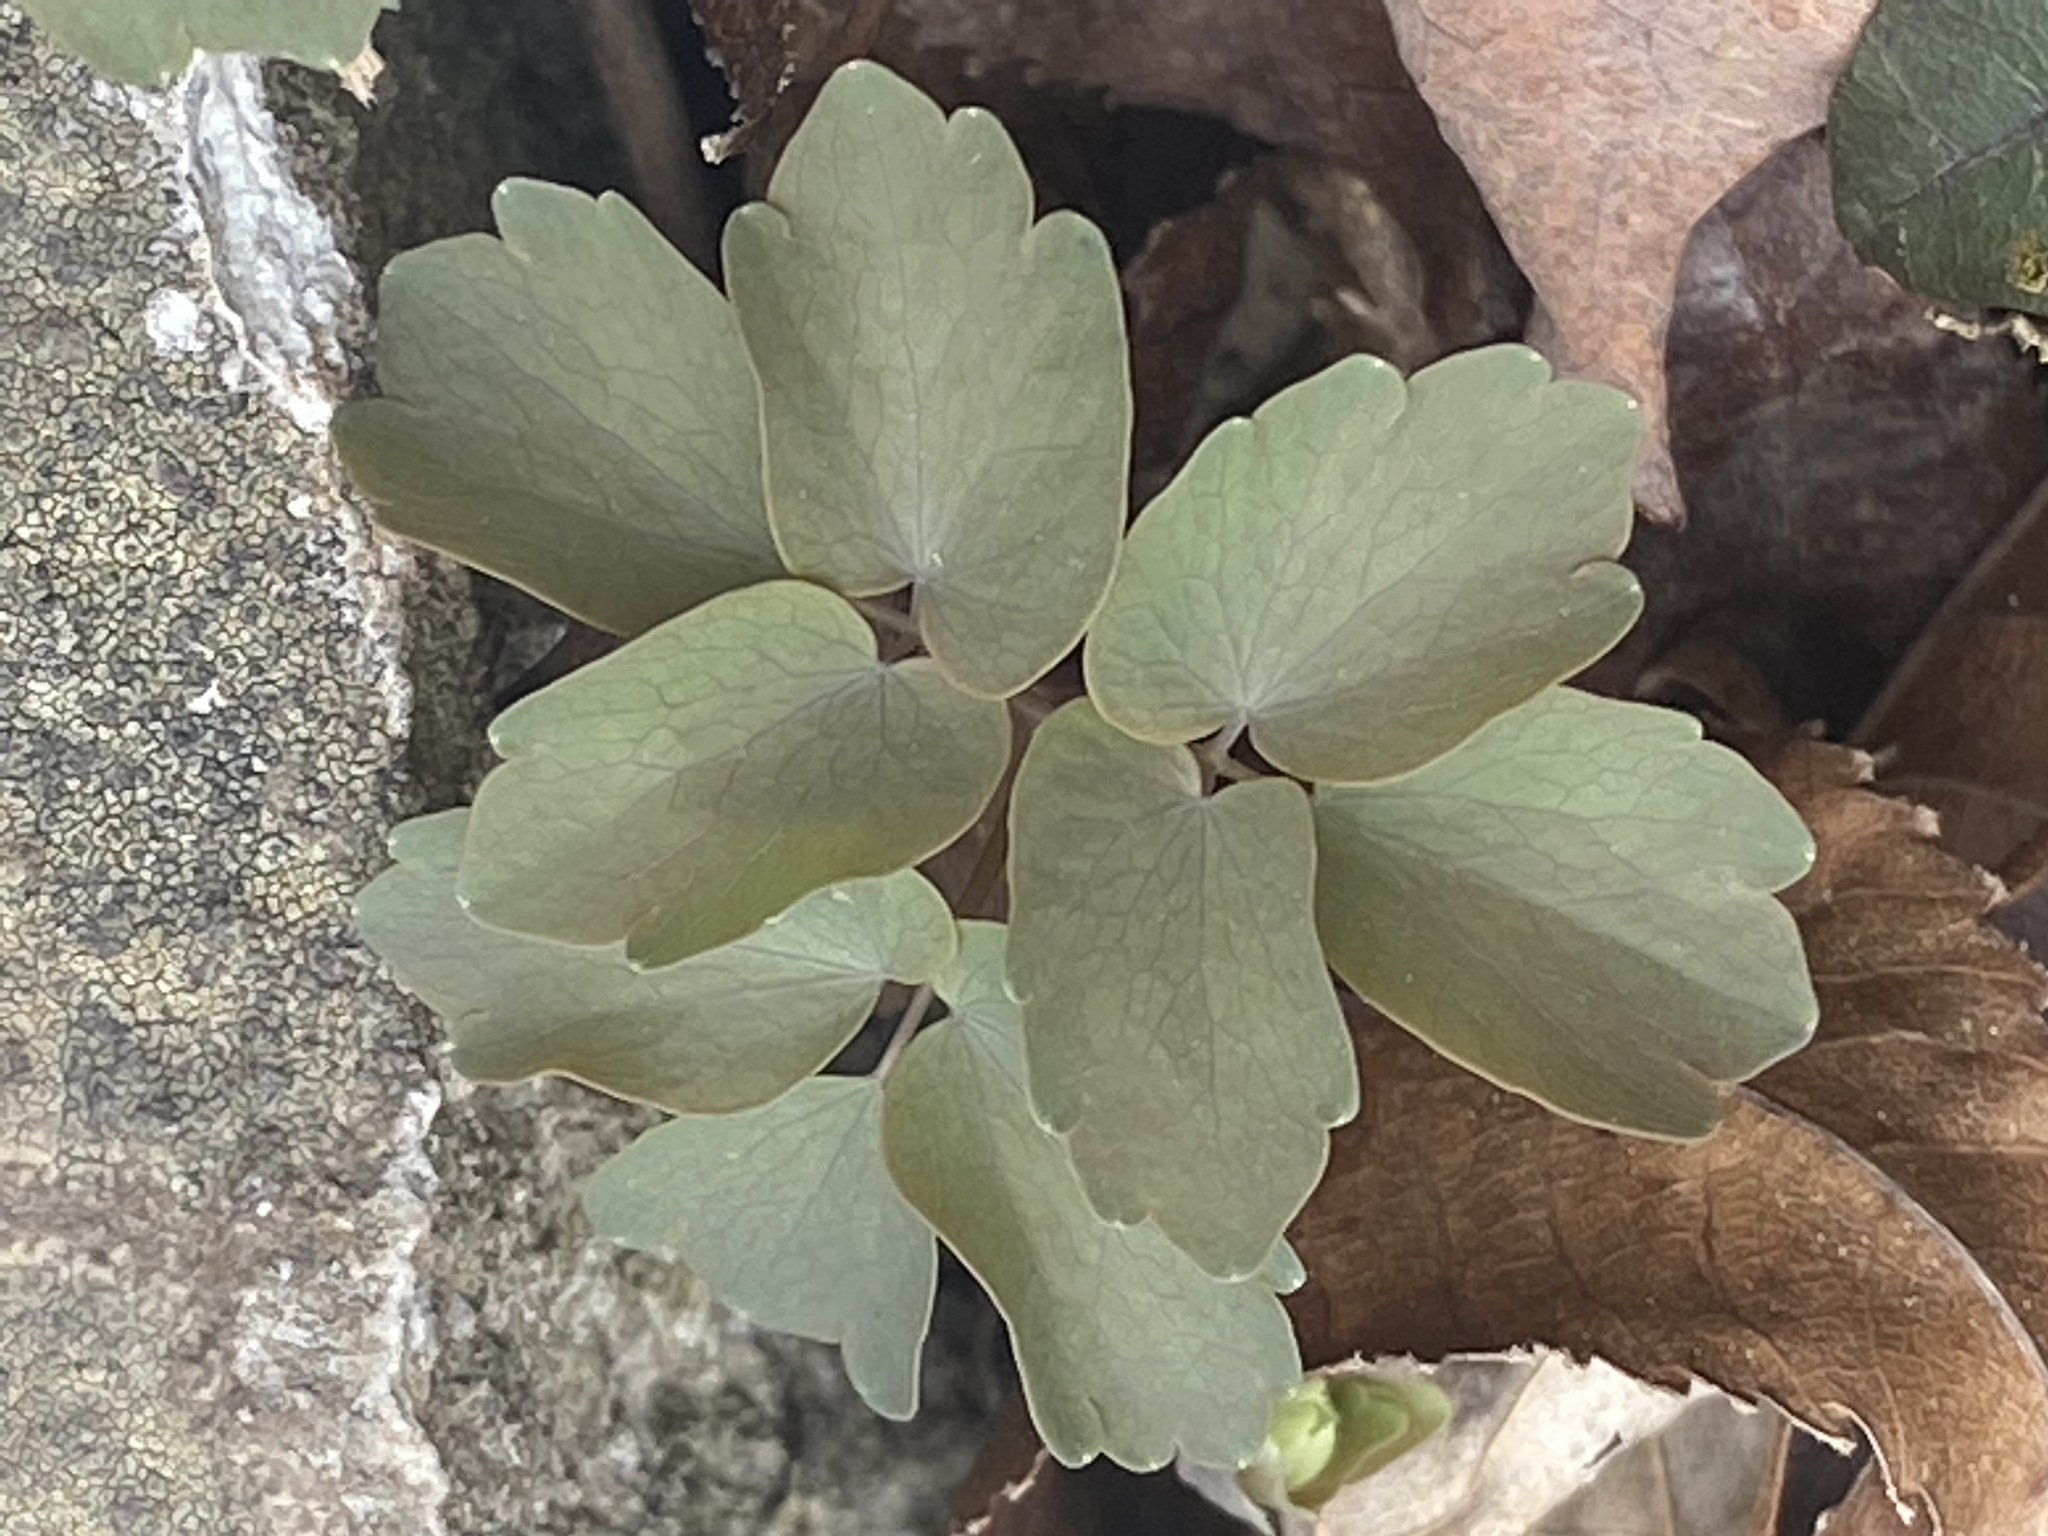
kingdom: Plantae
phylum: Tracheophyta
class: Magnoliopsida
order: Ranunculales
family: Ranunculaceae
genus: Thalictrum
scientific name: Thalictrum thalictroides
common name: Rue-anemone
